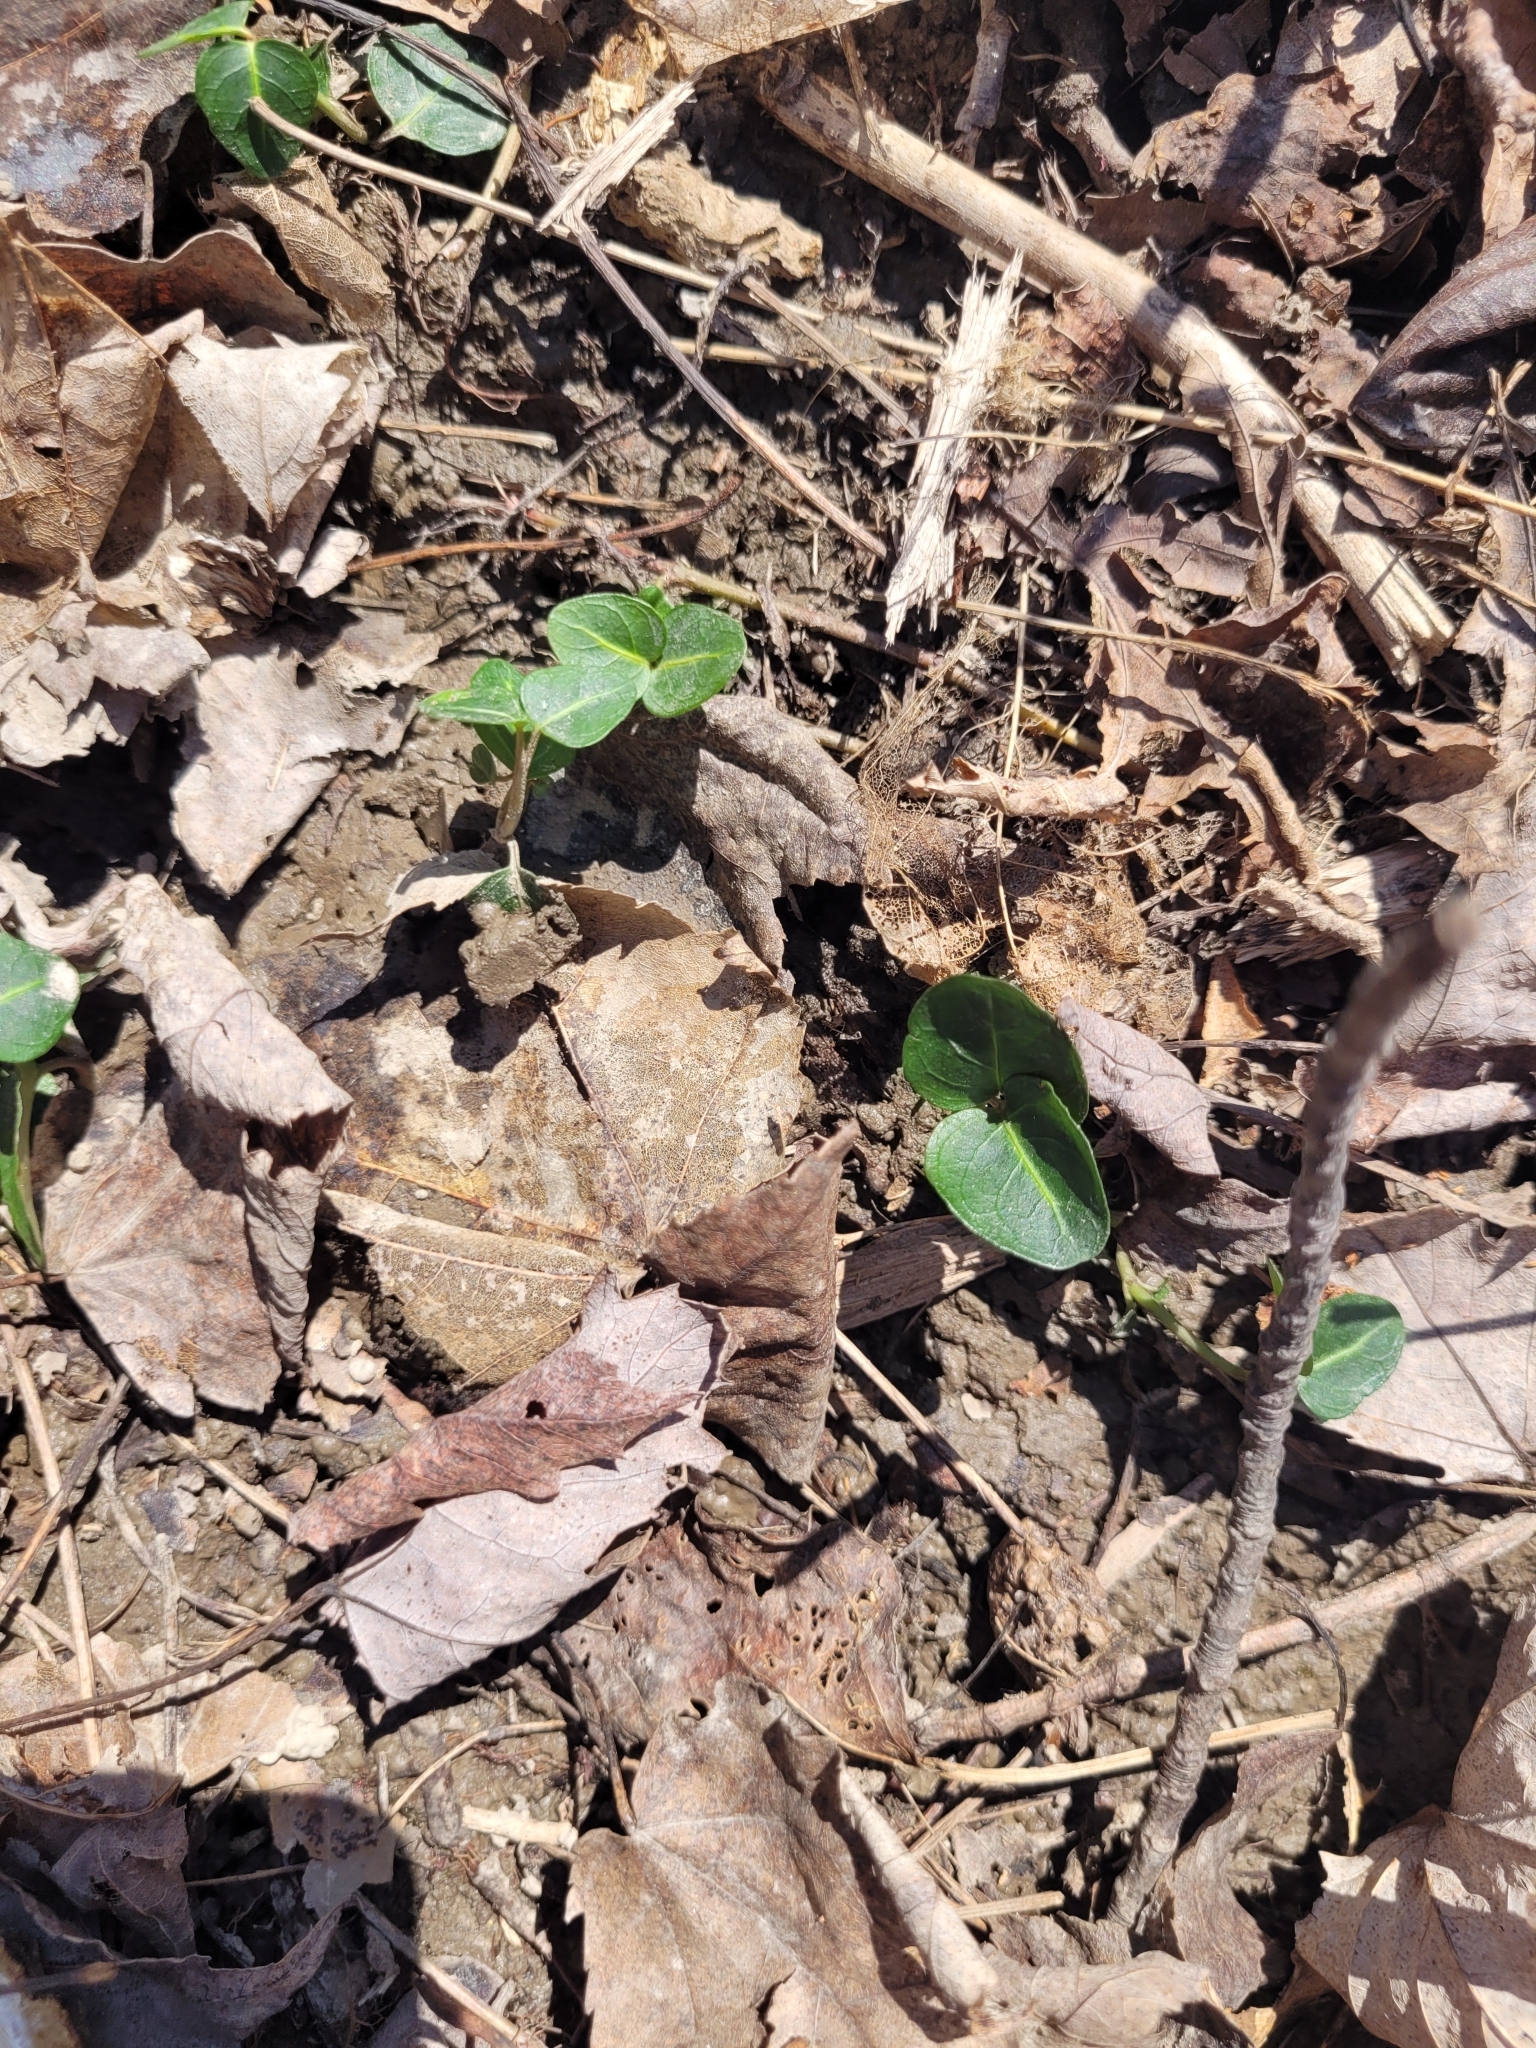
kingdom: Plantae
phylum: Tracheophyta
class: Magnoliopsida
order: Gentianales
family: Rubiaceae
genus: Mitchella
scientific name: Mitchella repens
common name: Partridge-berry
